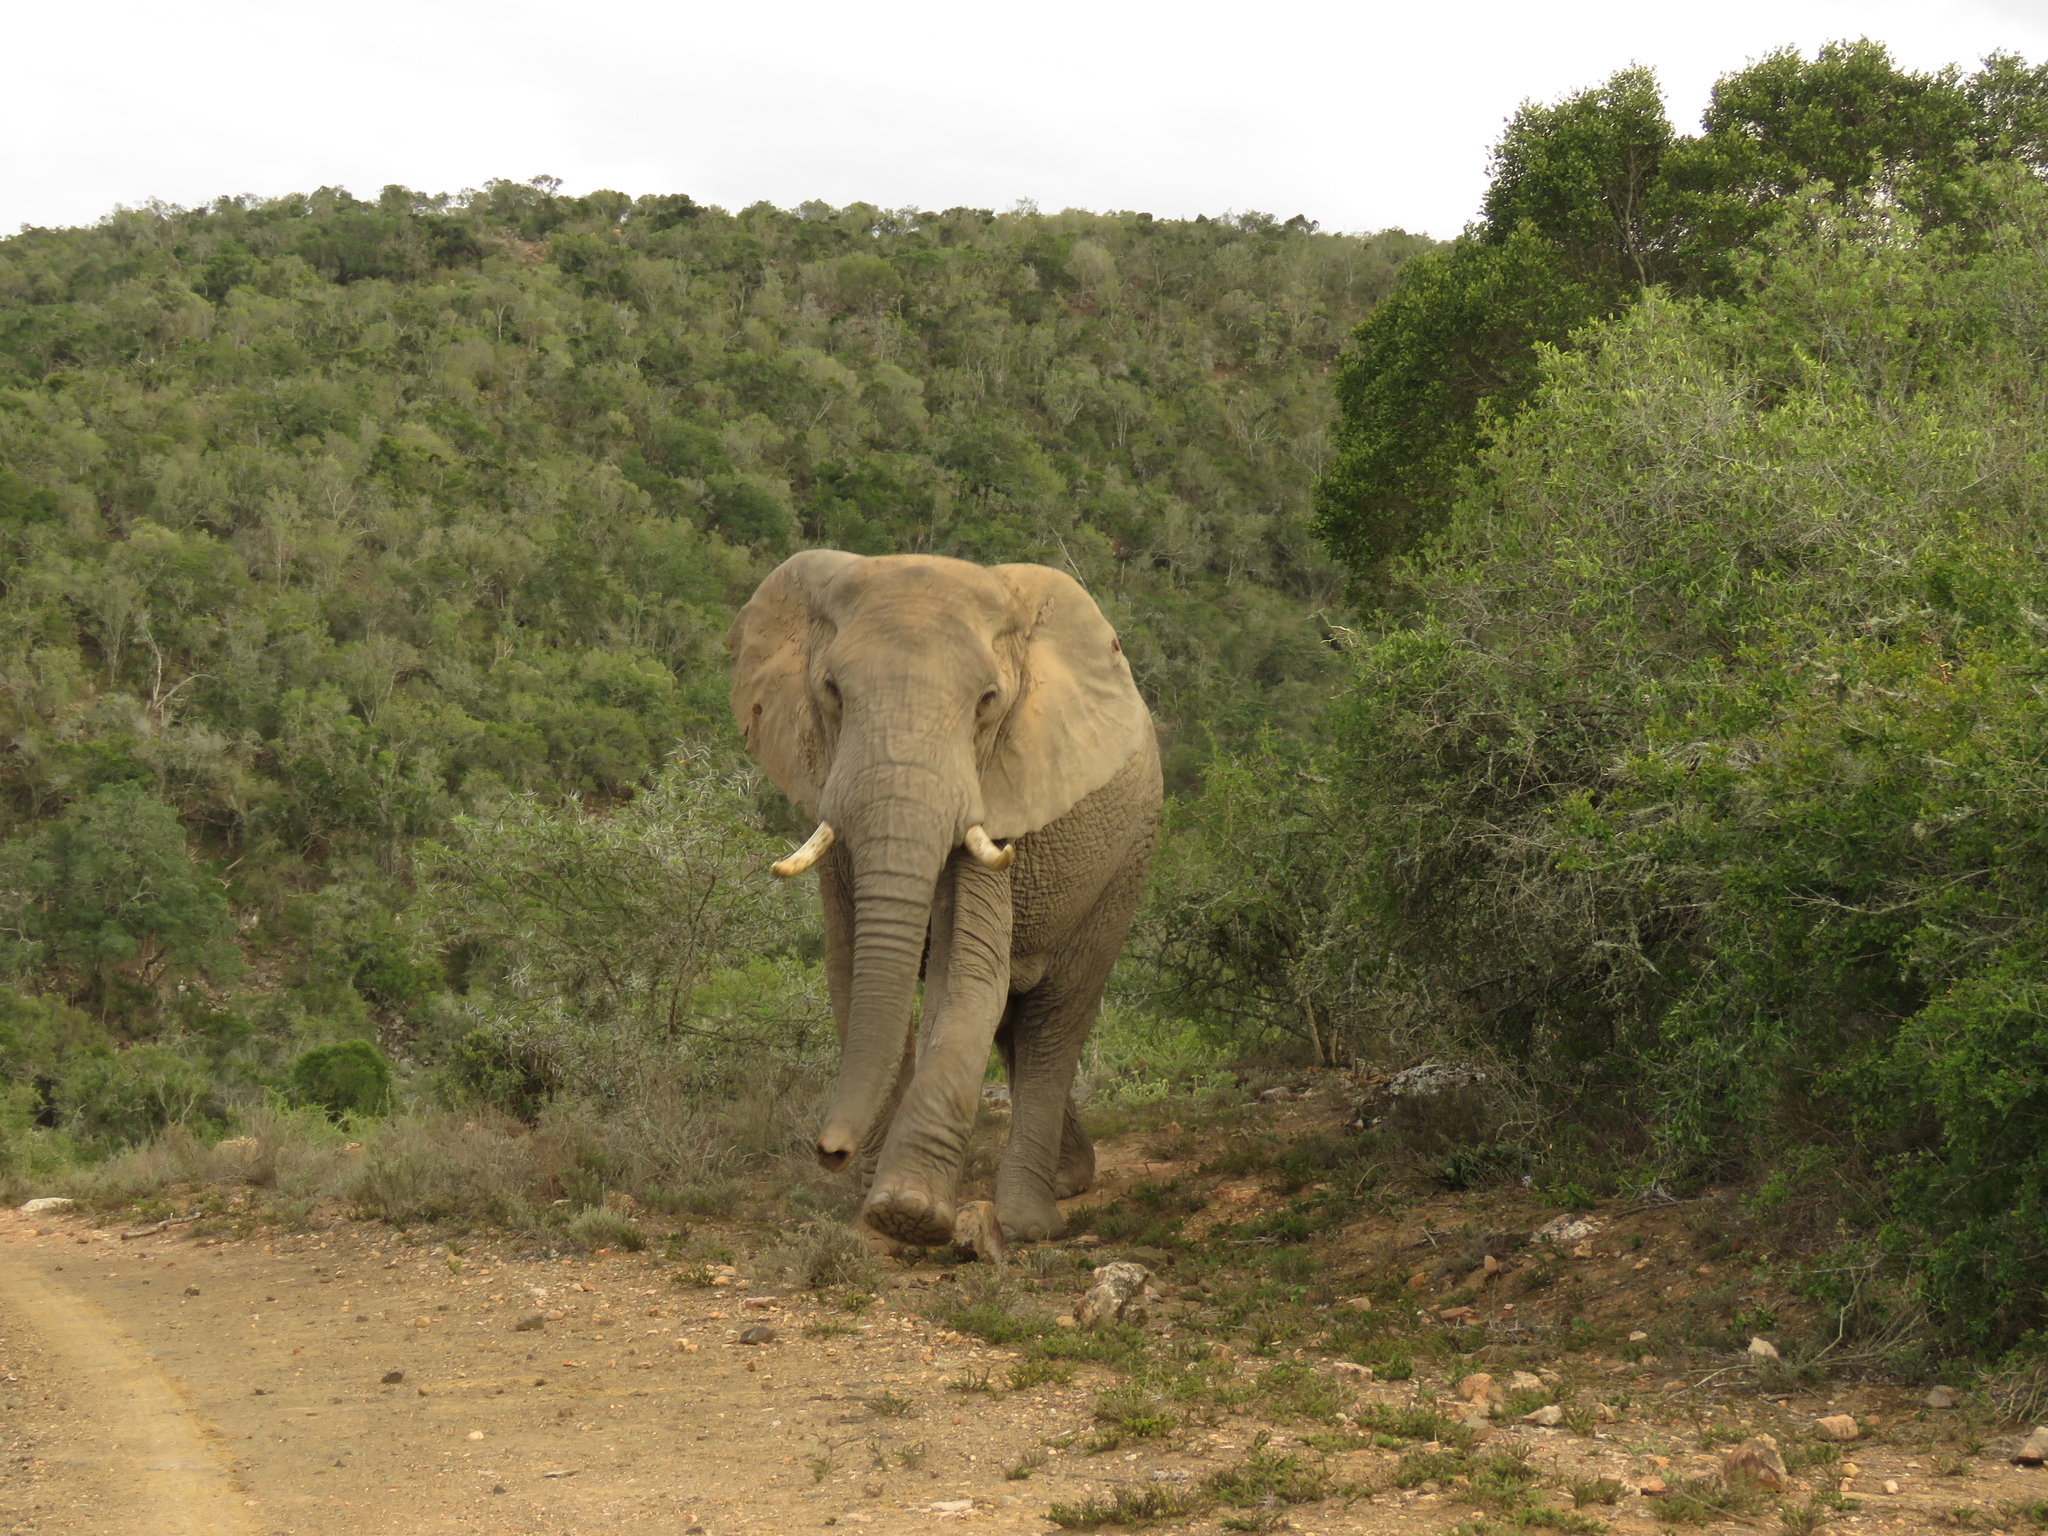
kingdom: Animalia
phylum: Chordata
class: Mammalia
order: Proboscidea
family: Elephantidae
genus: Loxodonta
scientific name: Loxodonta africana
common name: African elephant
